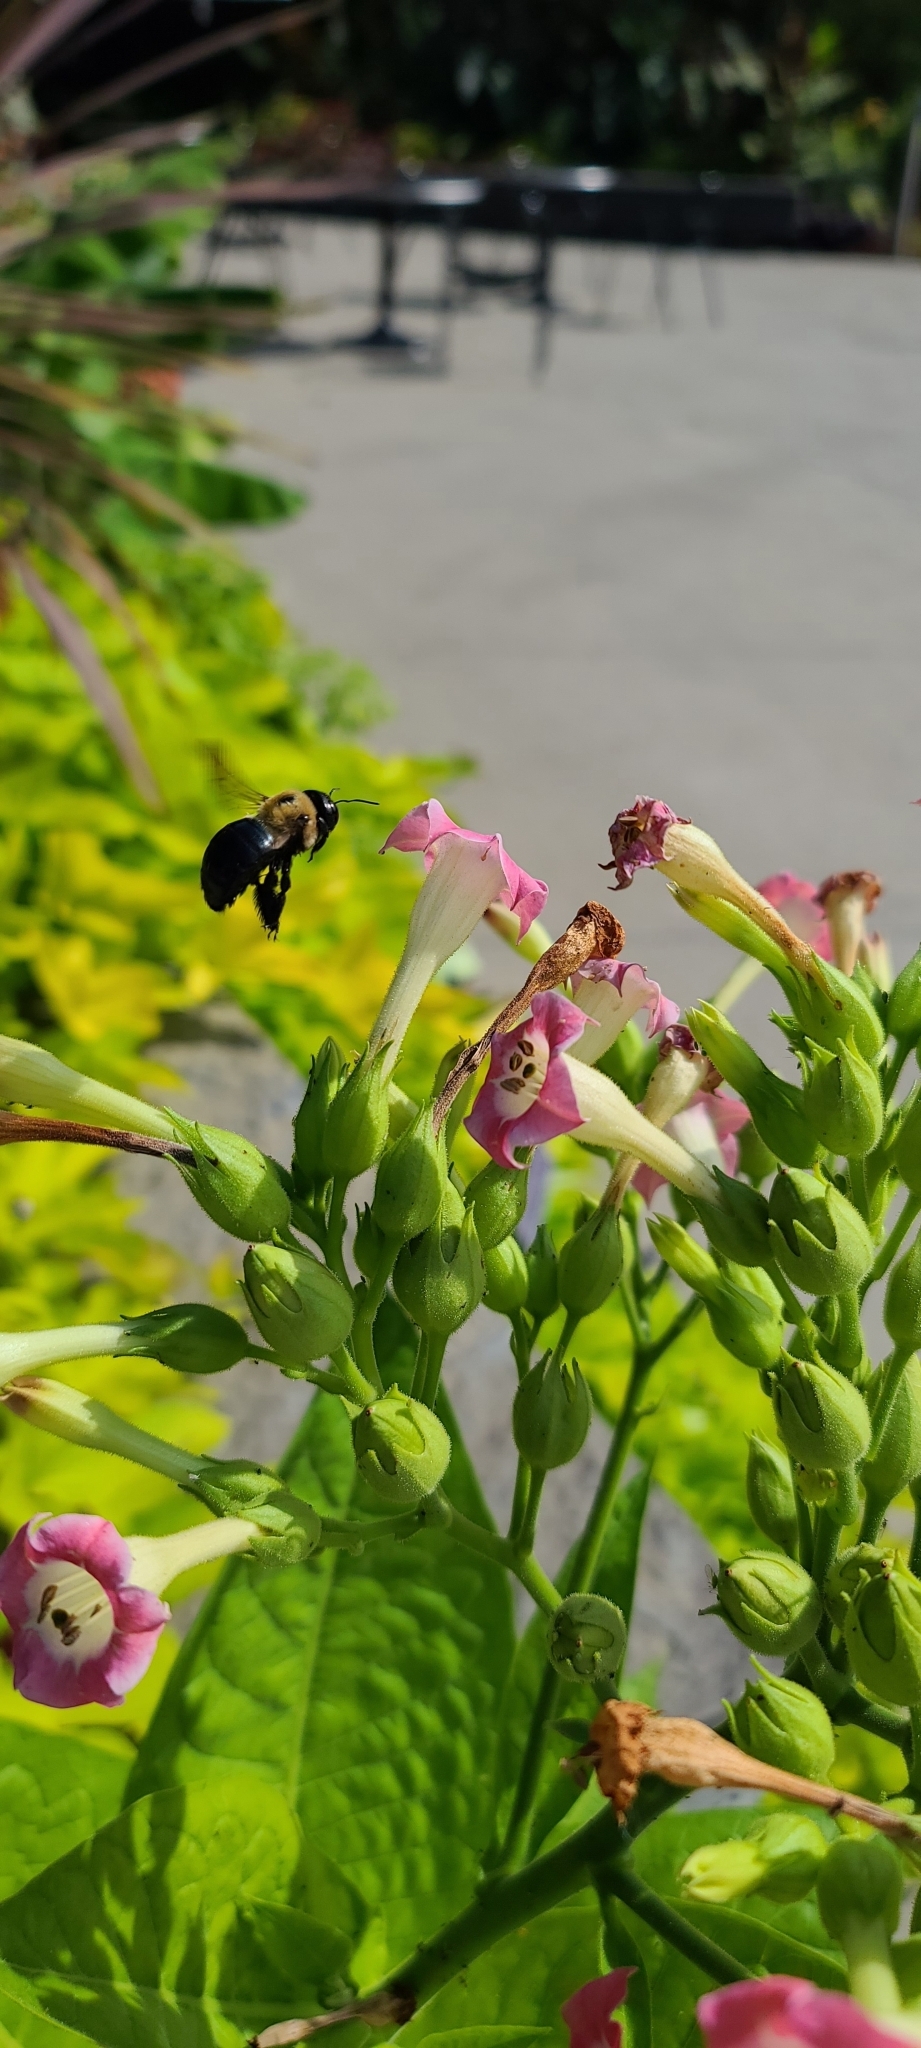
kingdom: Animalia
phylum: Arthropoda
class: Insecta
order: Hymenoptera
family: Apidae
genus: Xylocopa
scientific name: Xylocopa virginica
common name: Carpenter bee
